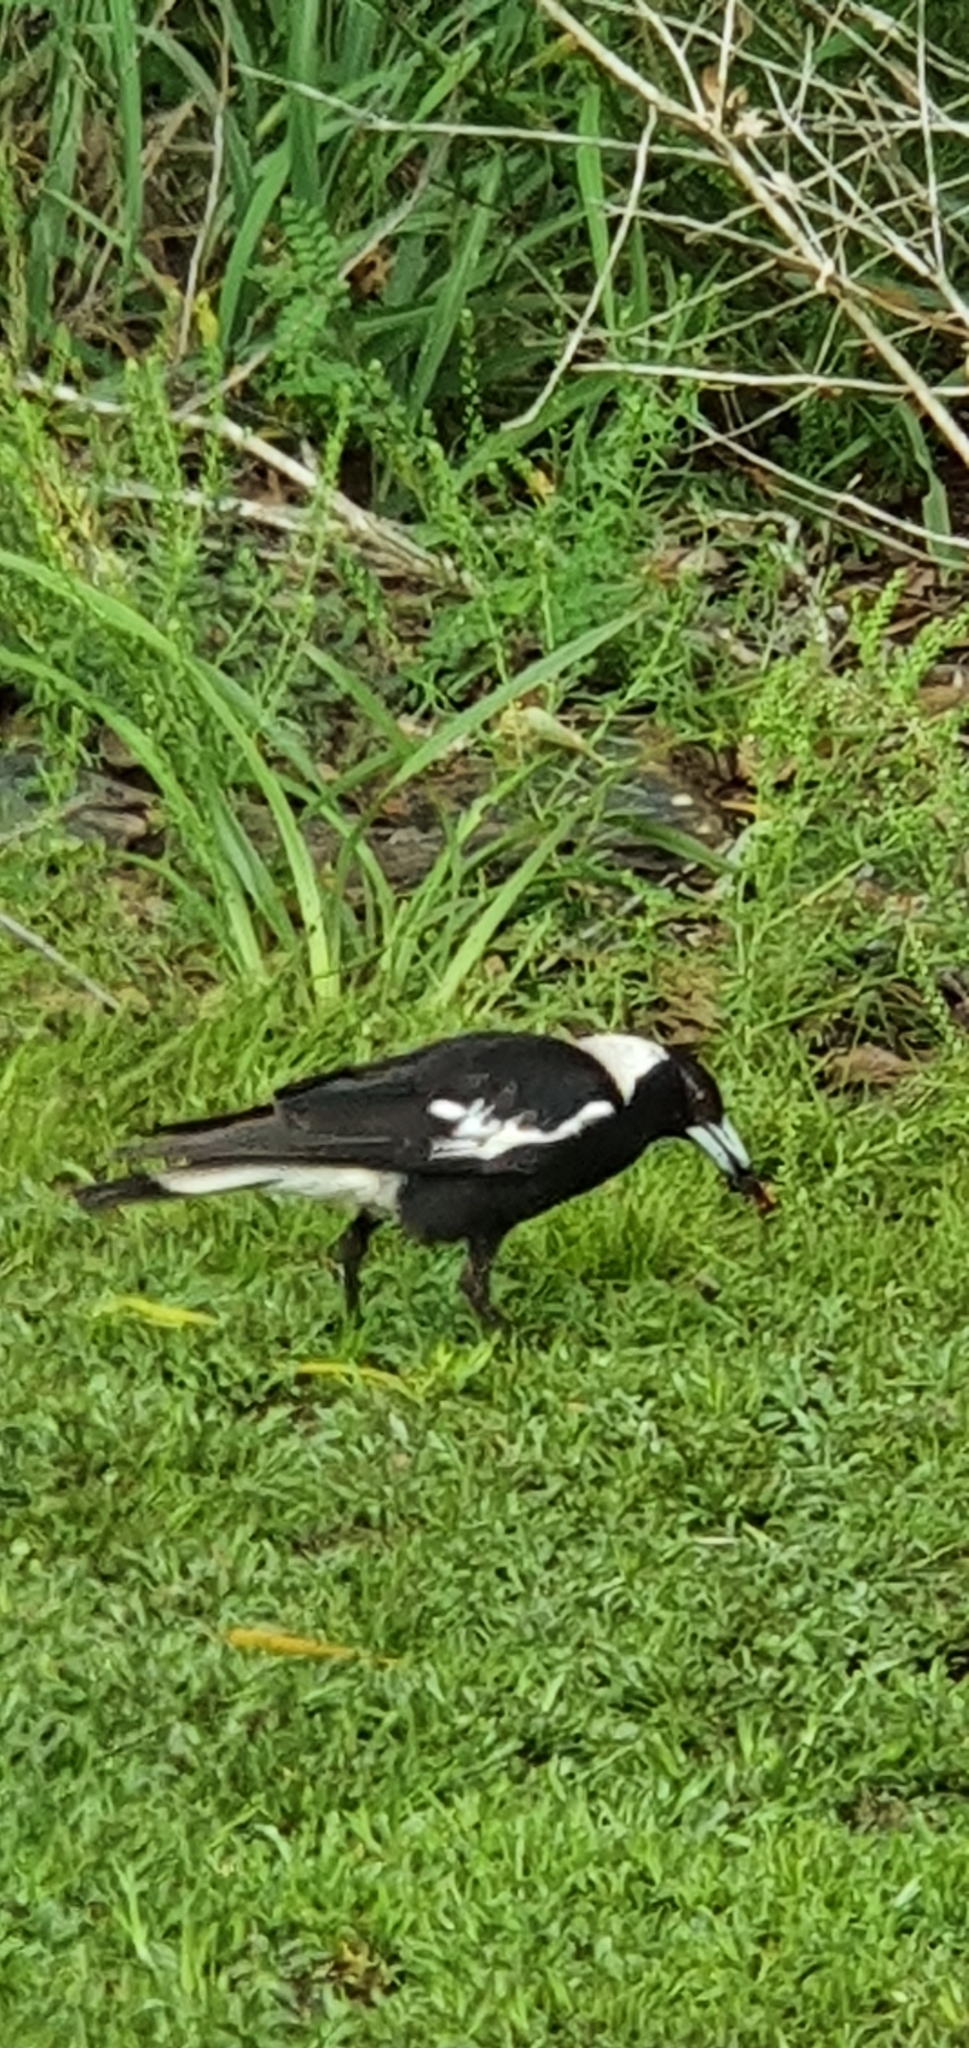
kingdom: Animalia
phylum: Chordata
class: Aves
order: Passeriformes
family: Cracticidae
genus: Gymnorhina
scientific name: Gymnorhina tibicen
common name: Australian magpie
